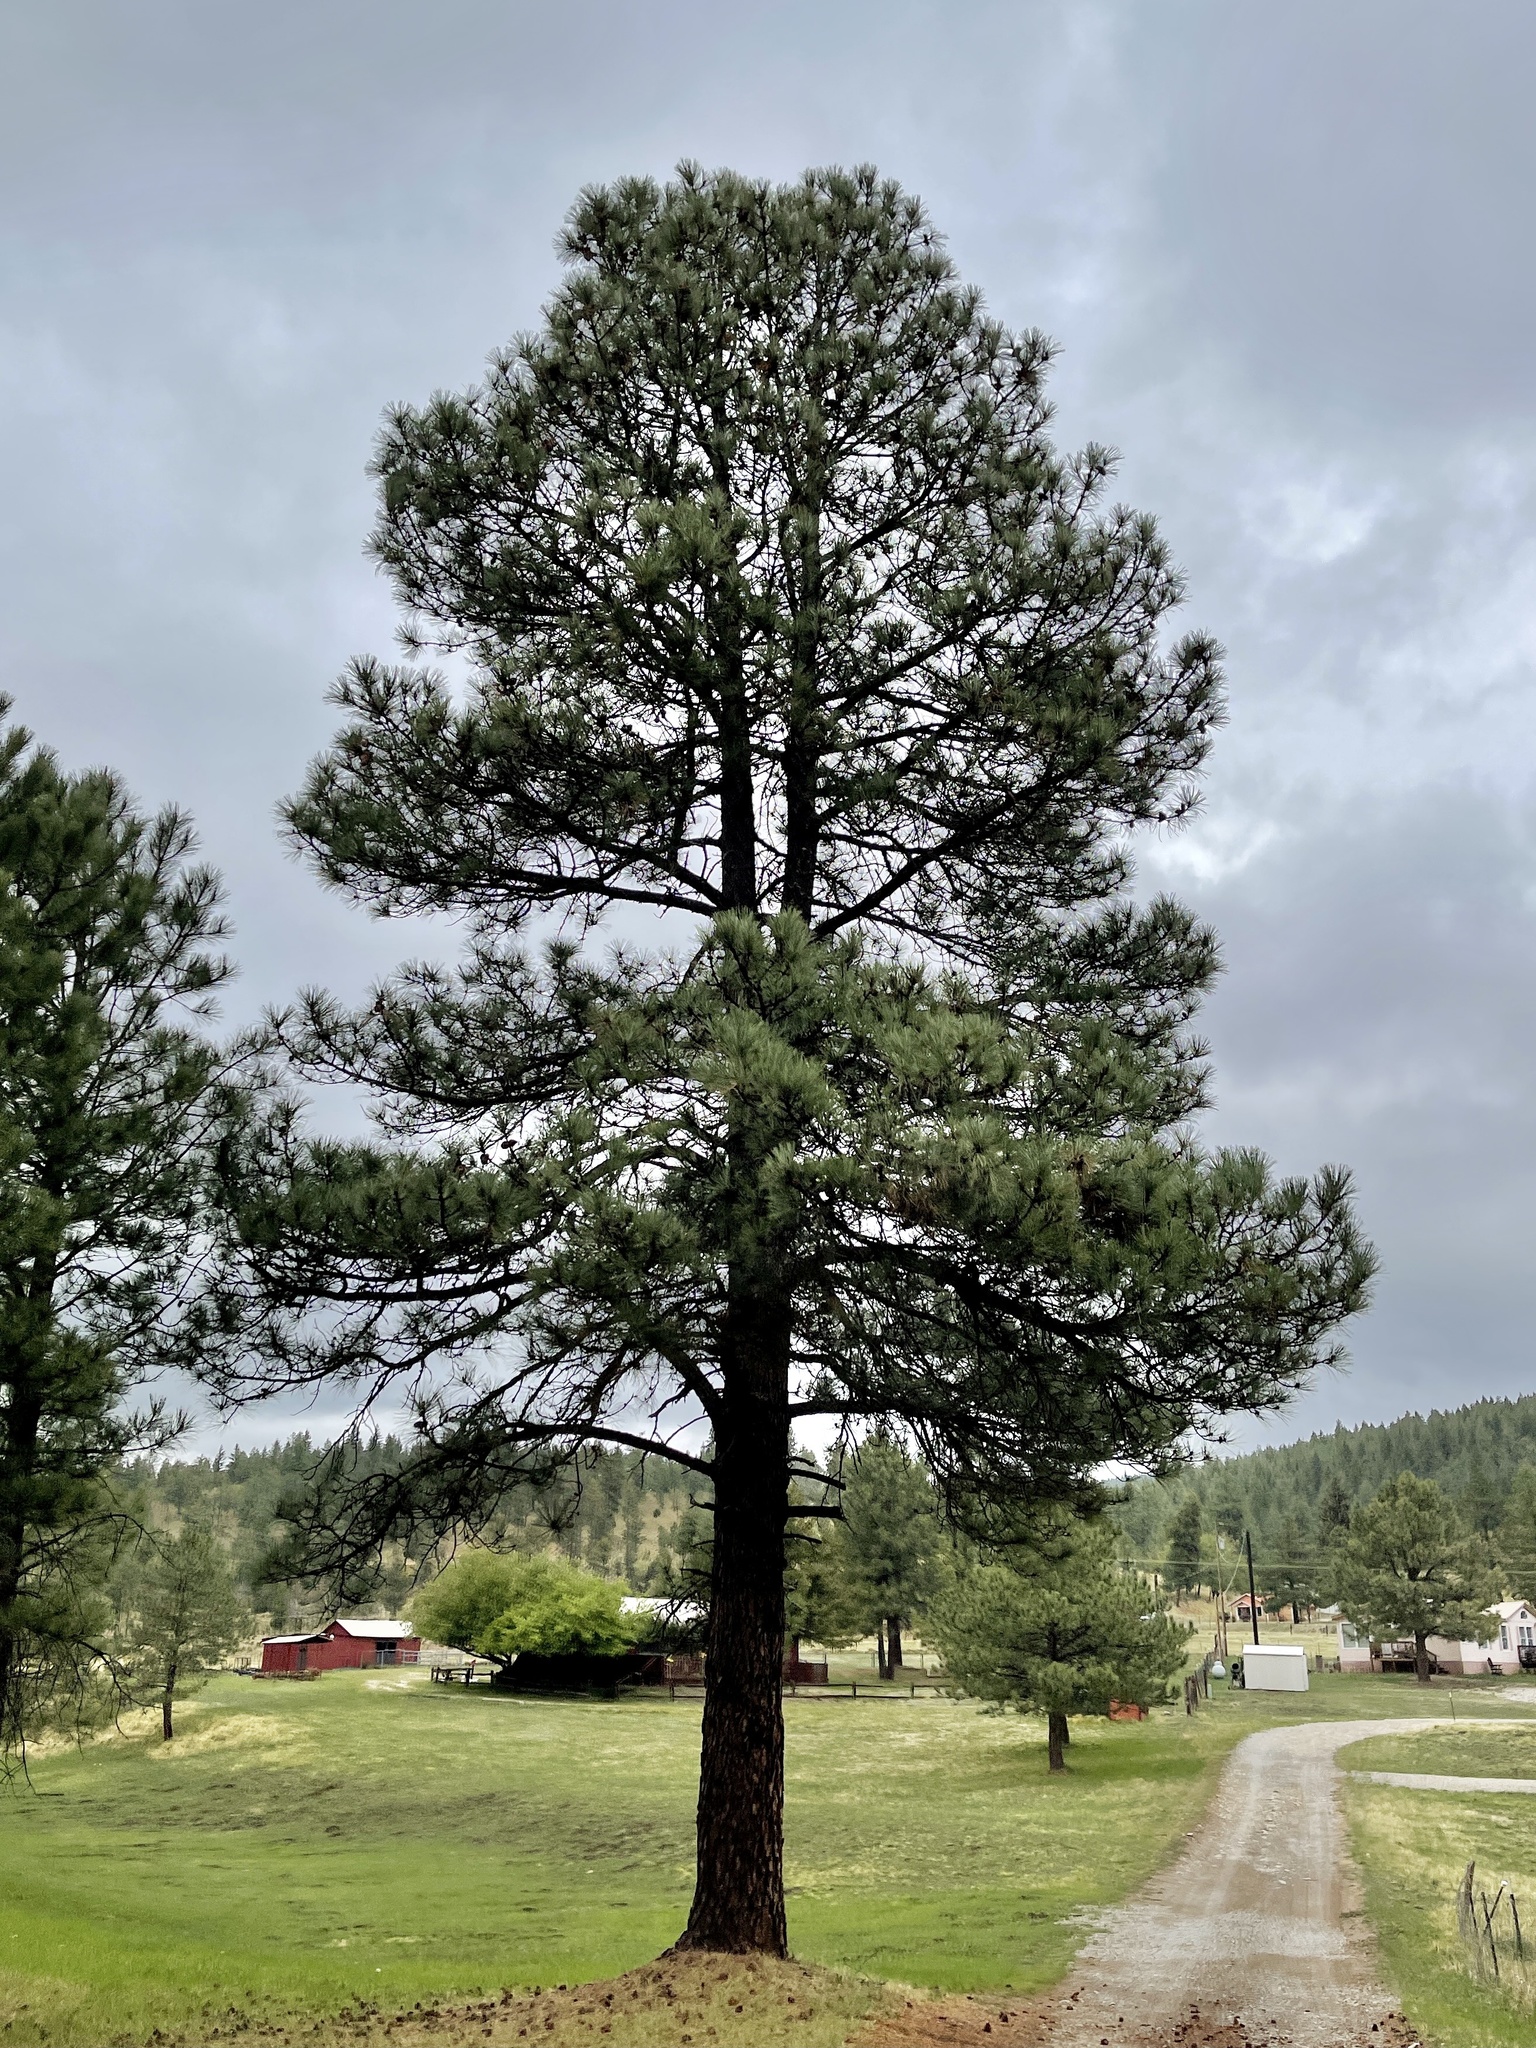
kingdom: Plantae
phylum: Tracheophyta
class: Pinopsida
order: Pinales
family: Pinaceae
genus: Pinus
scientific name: Pinus ponderosa
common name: Western yellow-pine
